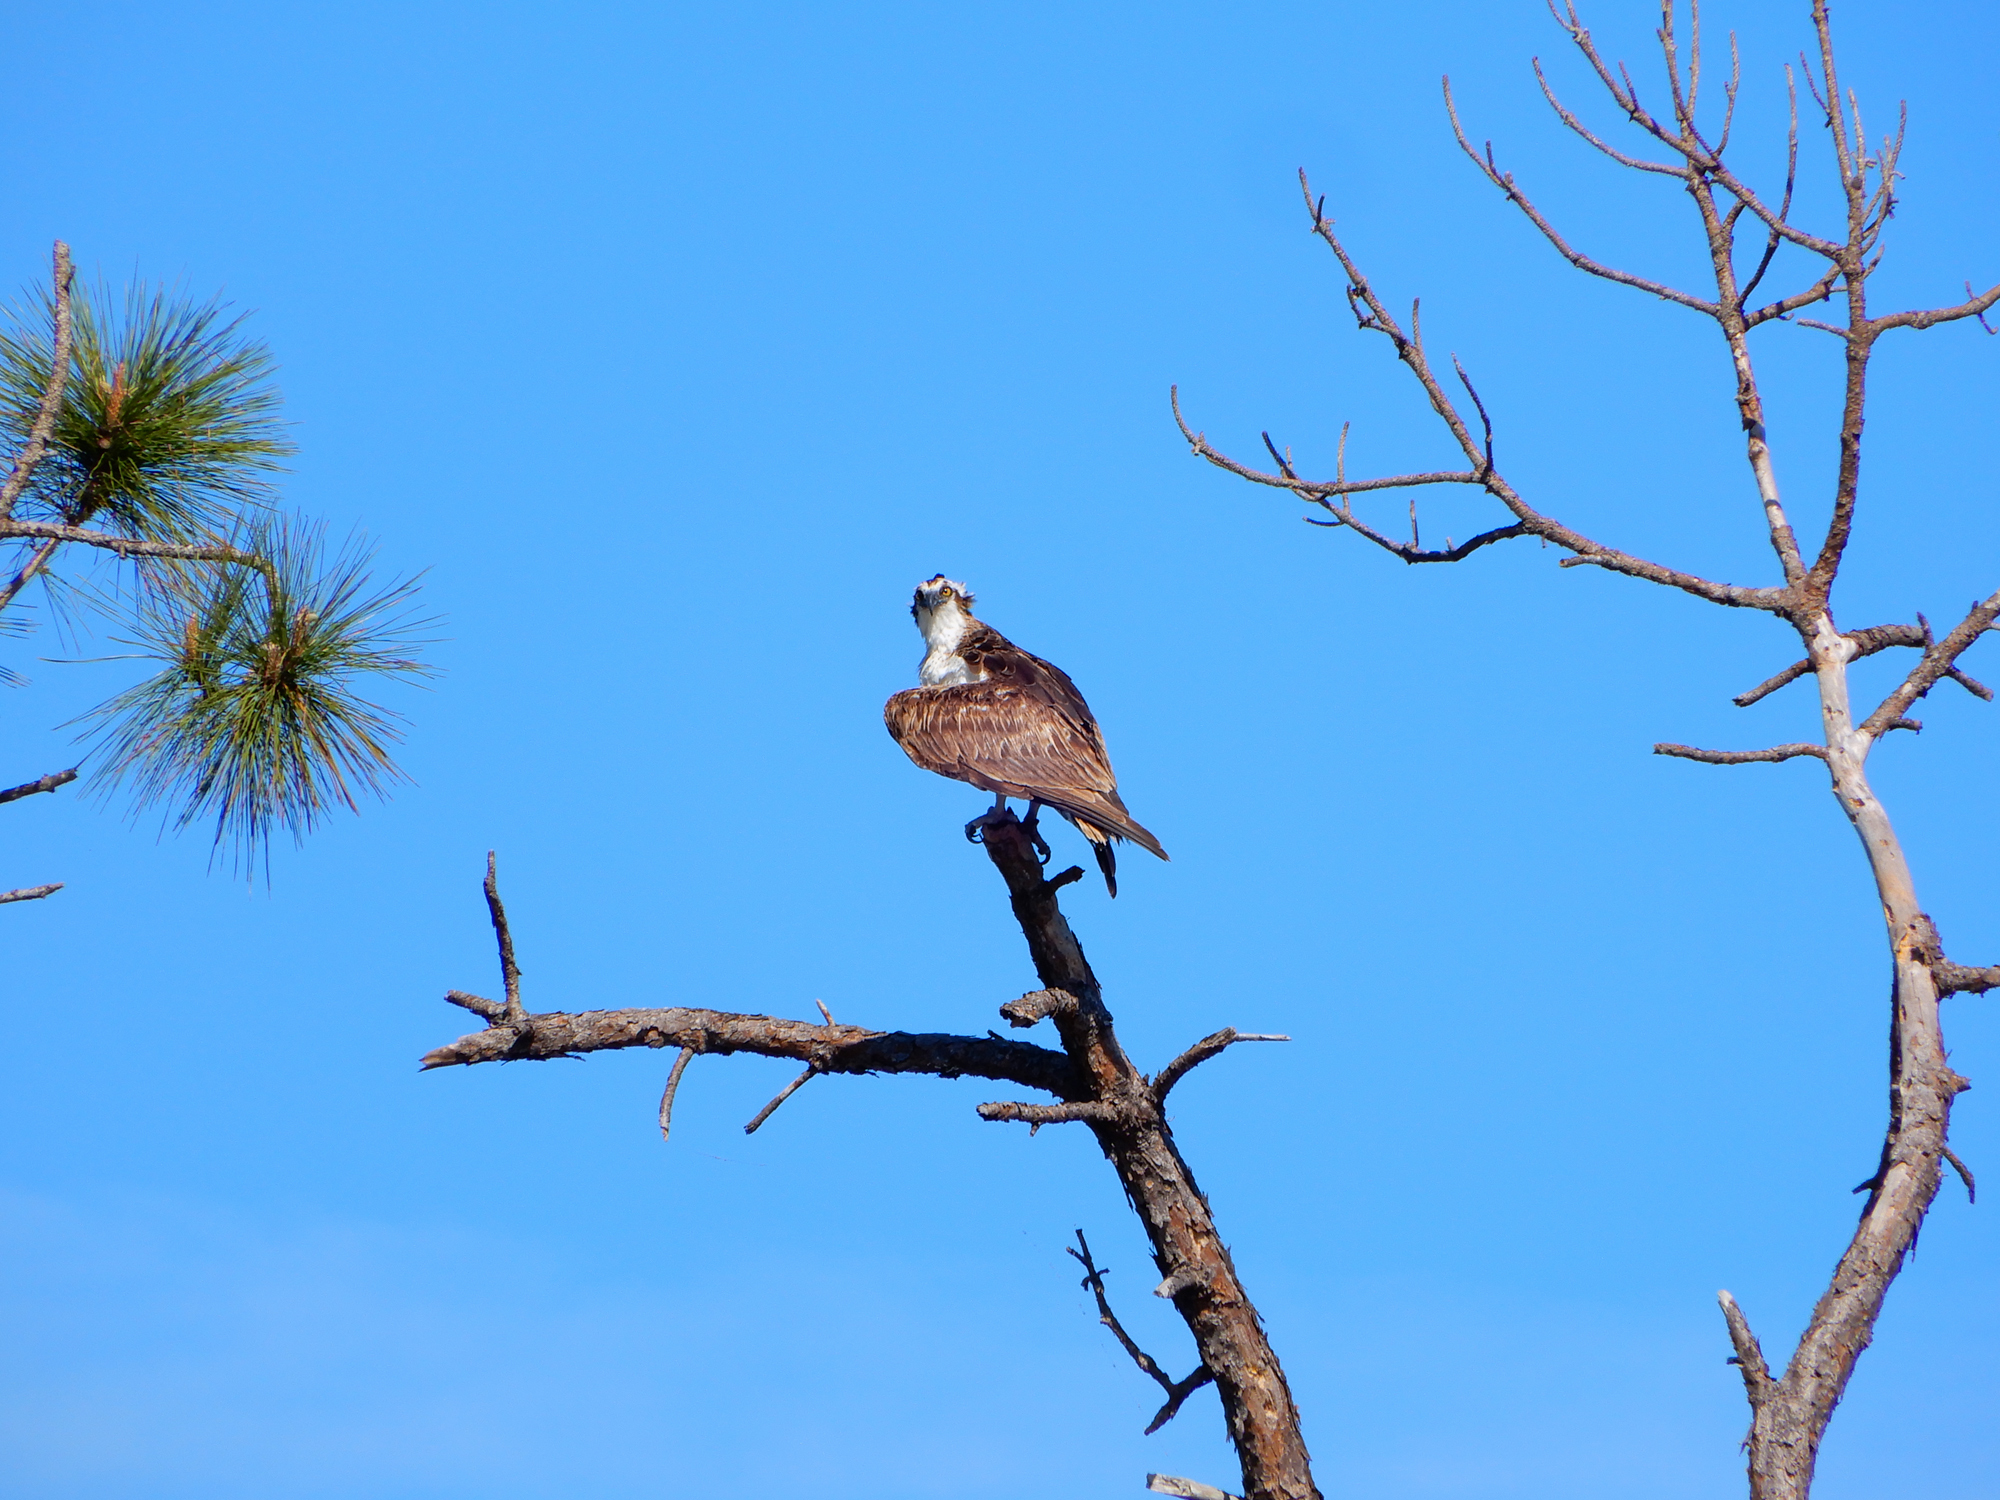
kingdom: Animalia
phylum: Chordata
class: Aves
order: Accipitriformes
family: Pandionidae
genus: Pandion
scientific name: Pandion haliaetus
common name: Osprey
